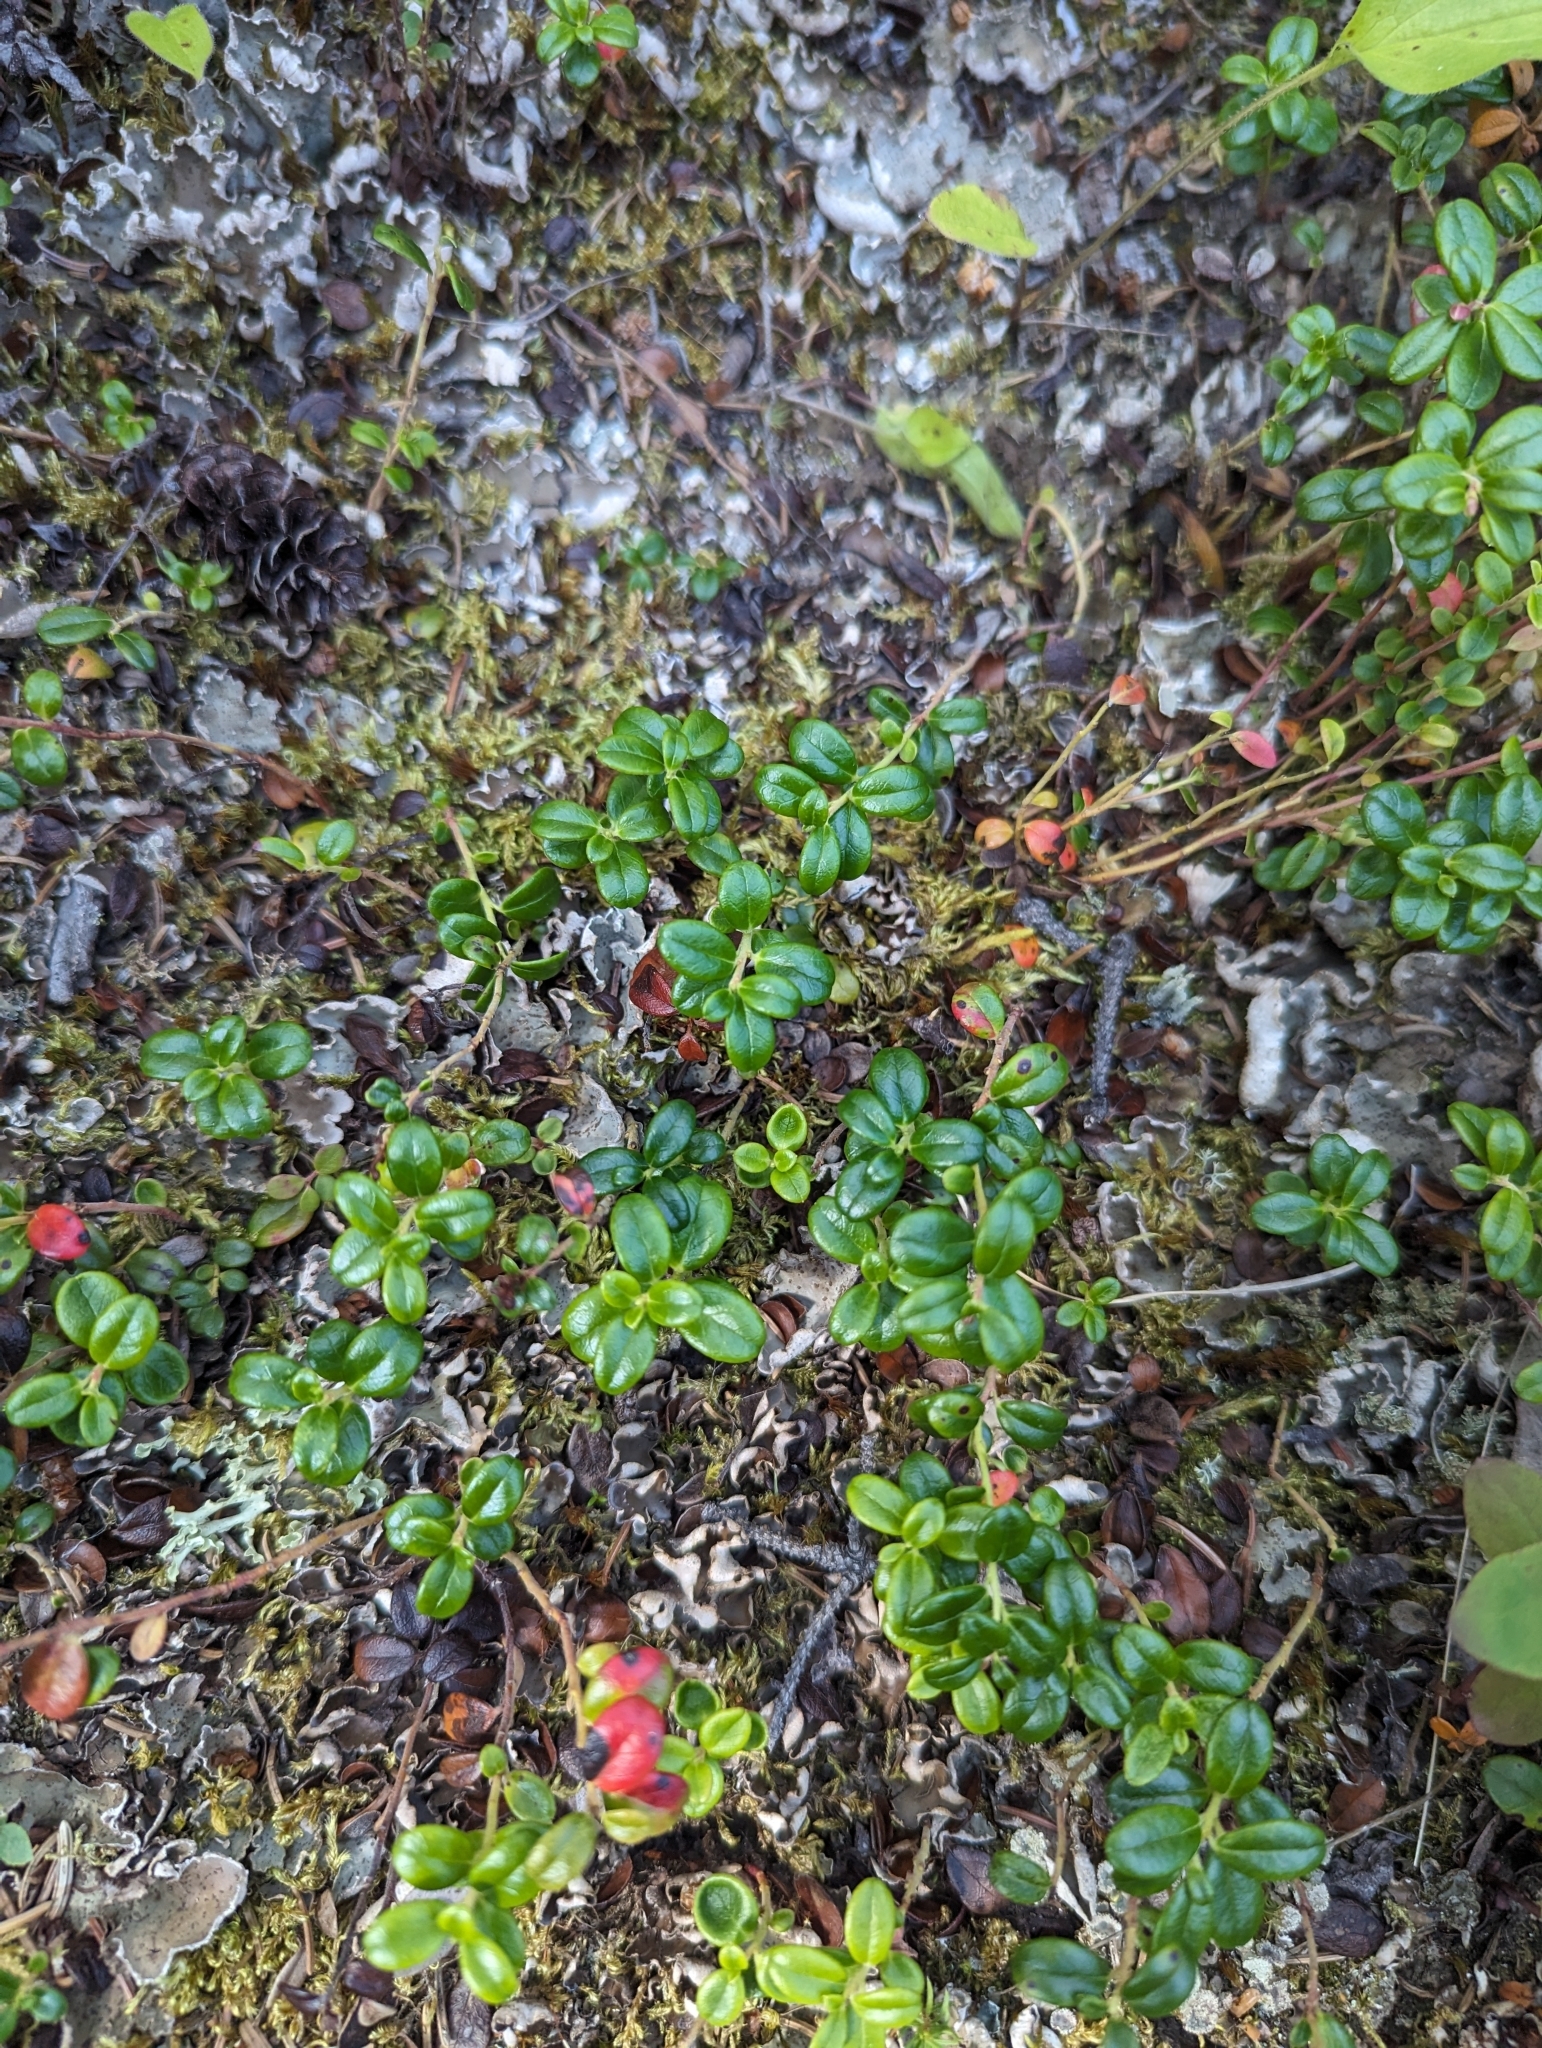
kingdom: Plantae
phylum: Tracheophyta
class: Magnoliopsida
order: Ericales
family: Ericaceae
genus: Vaccinium
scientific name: Vaccinium vitis-idaea
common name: Cowberry
